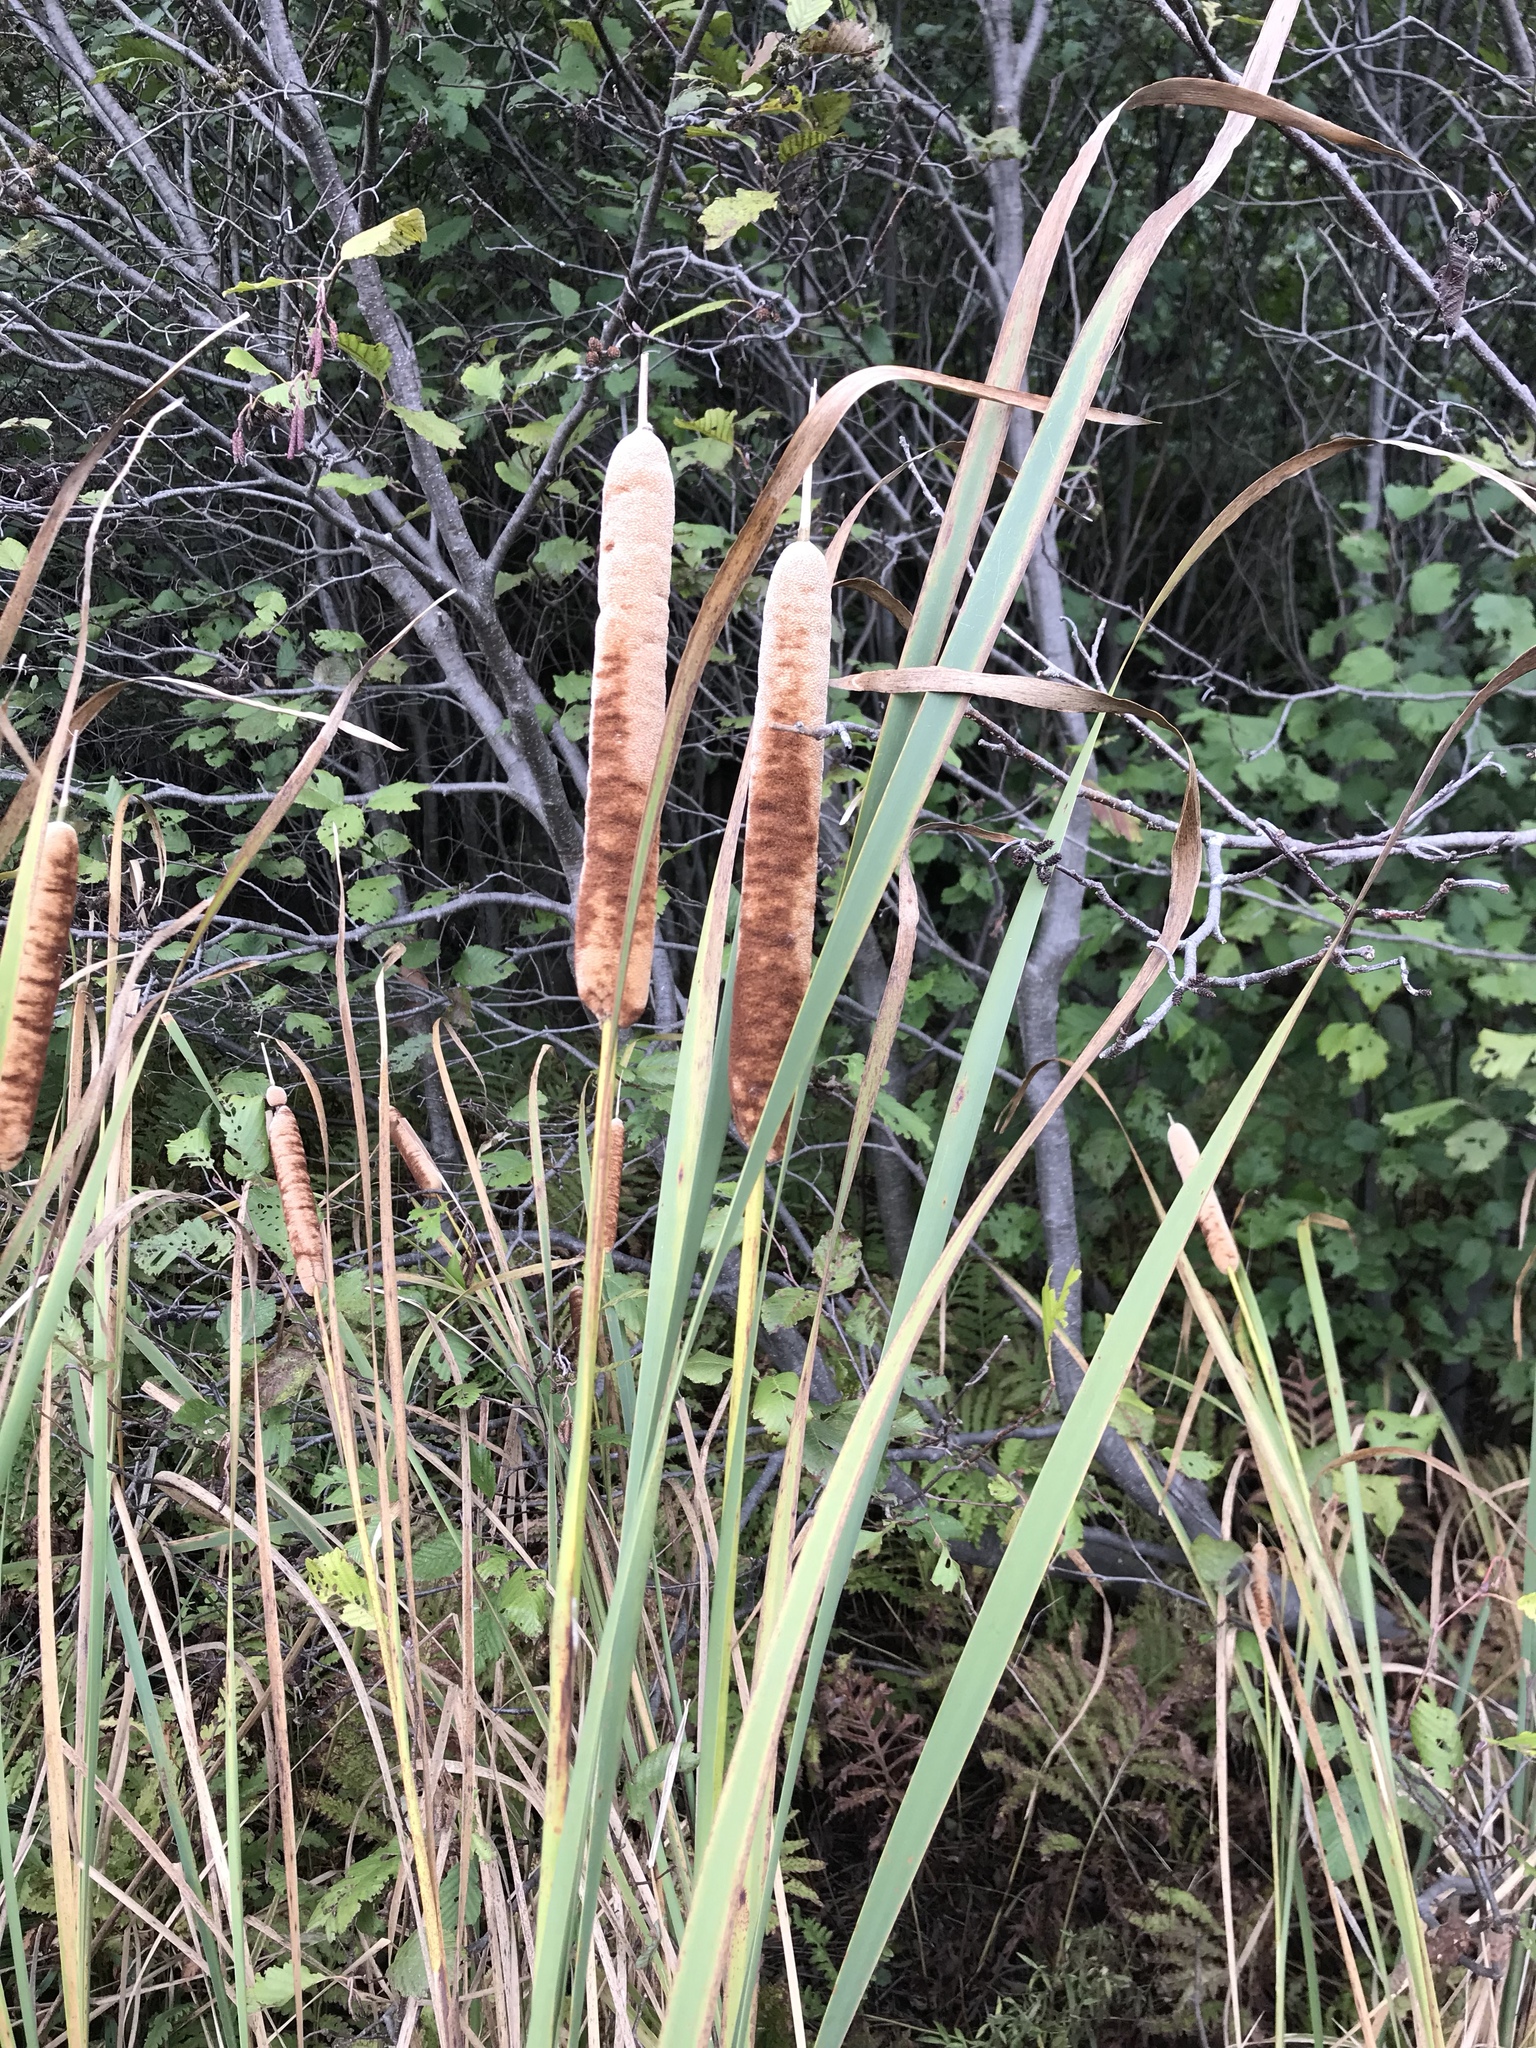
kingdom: Plantae
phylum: Tracheophyta
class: Liliopsida
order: Poales
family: Typhaceae
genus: Typha
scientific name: Typha latifolia
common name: Broadleaf cattail
